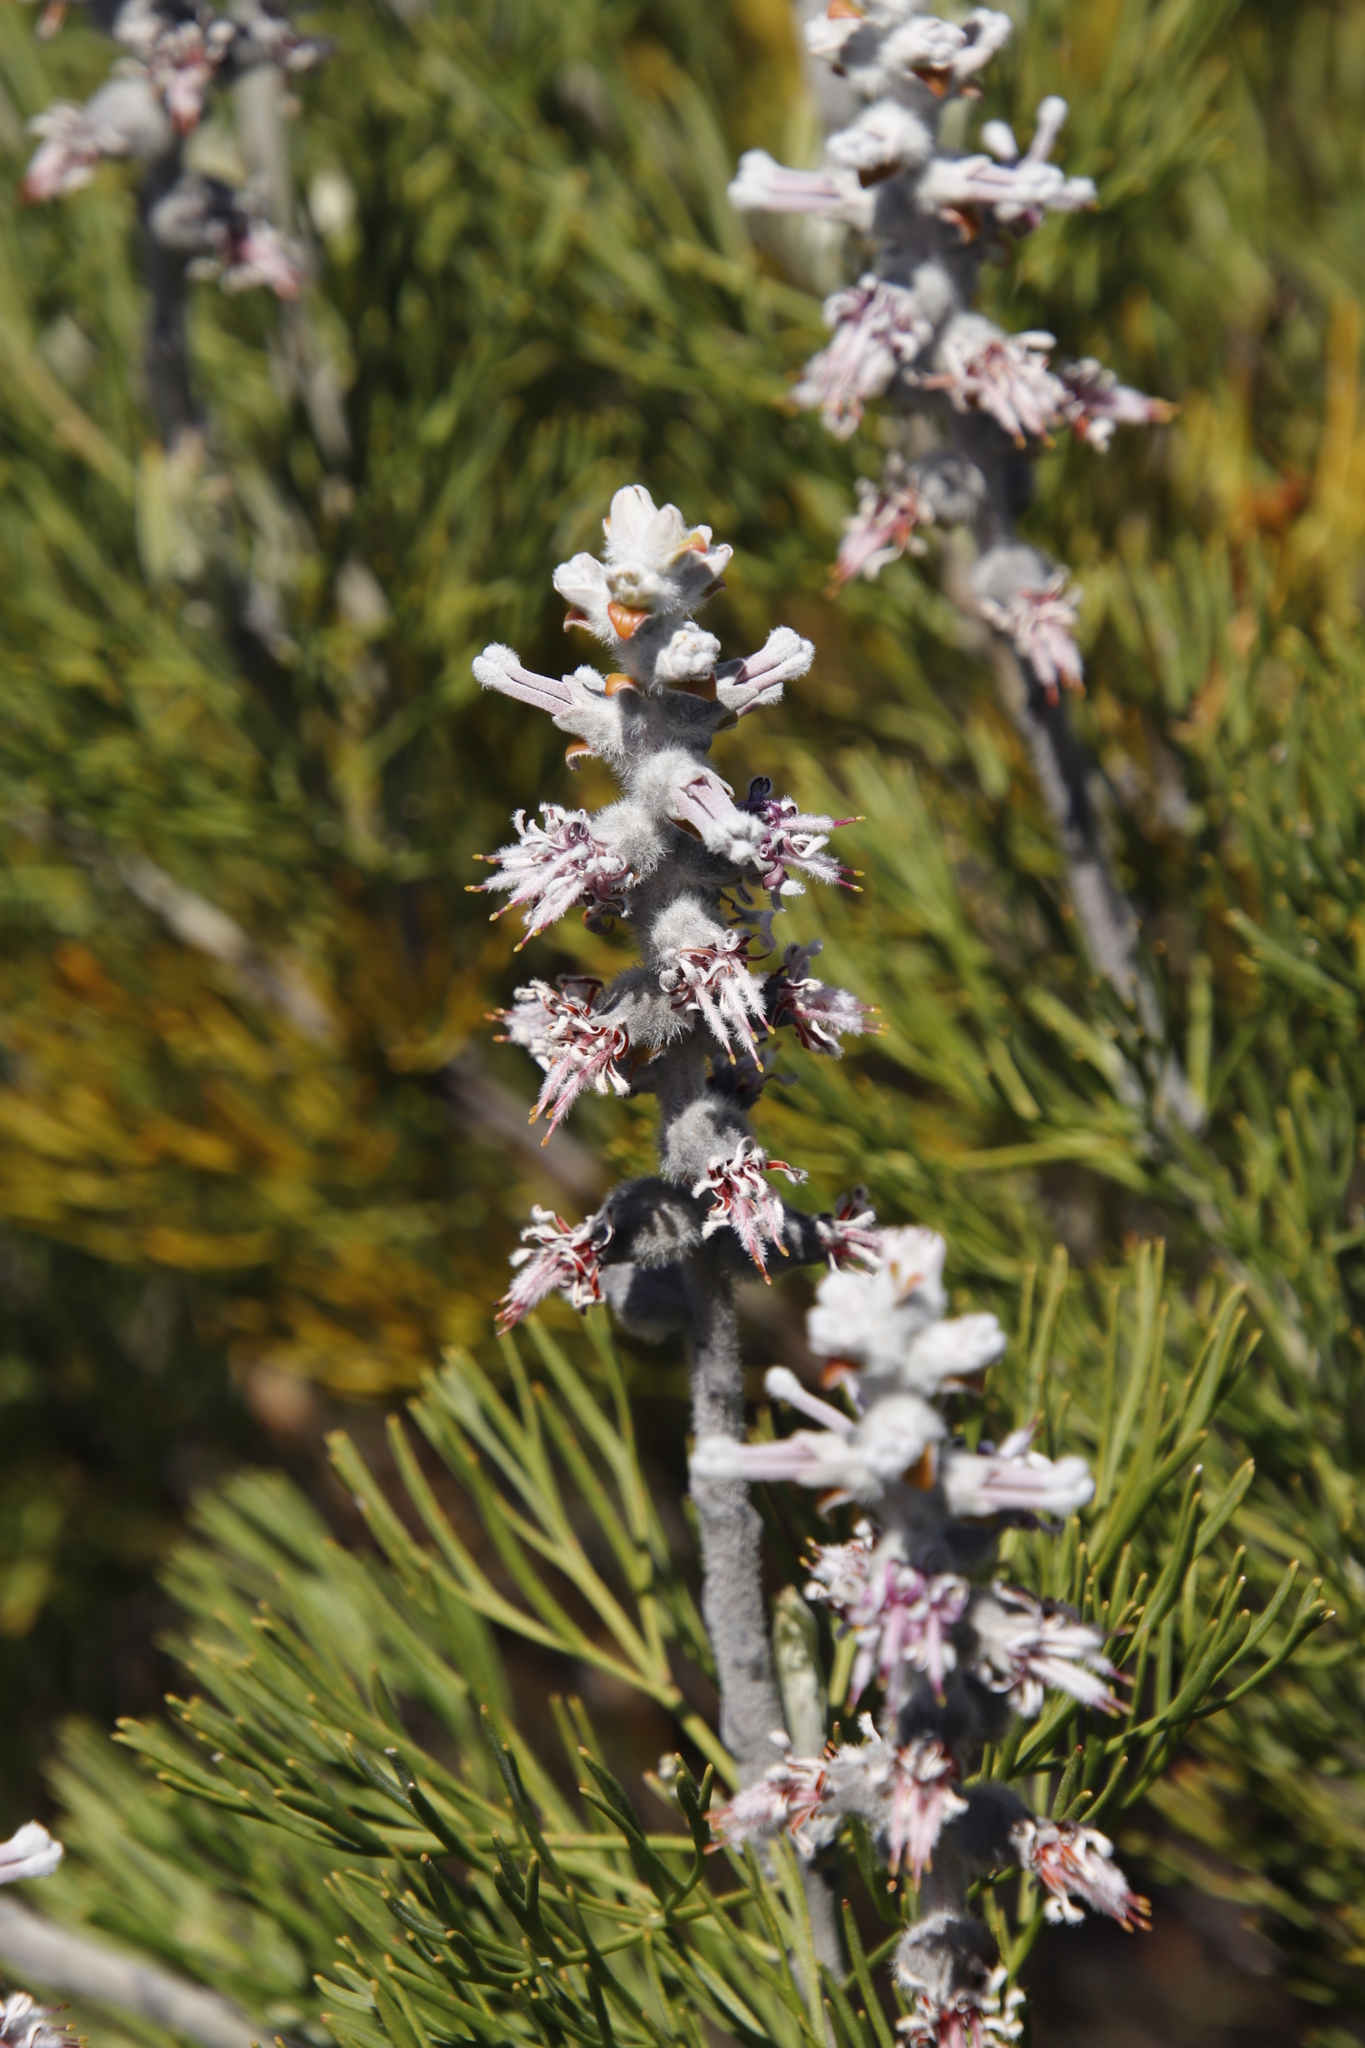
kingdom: Plantae
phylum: Tracheophyta
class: Magnoliopsida
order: Proteales
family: Proteaceae
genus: Paranomus
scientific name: Paranomus spicatus
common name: Kogelberg sceptre
